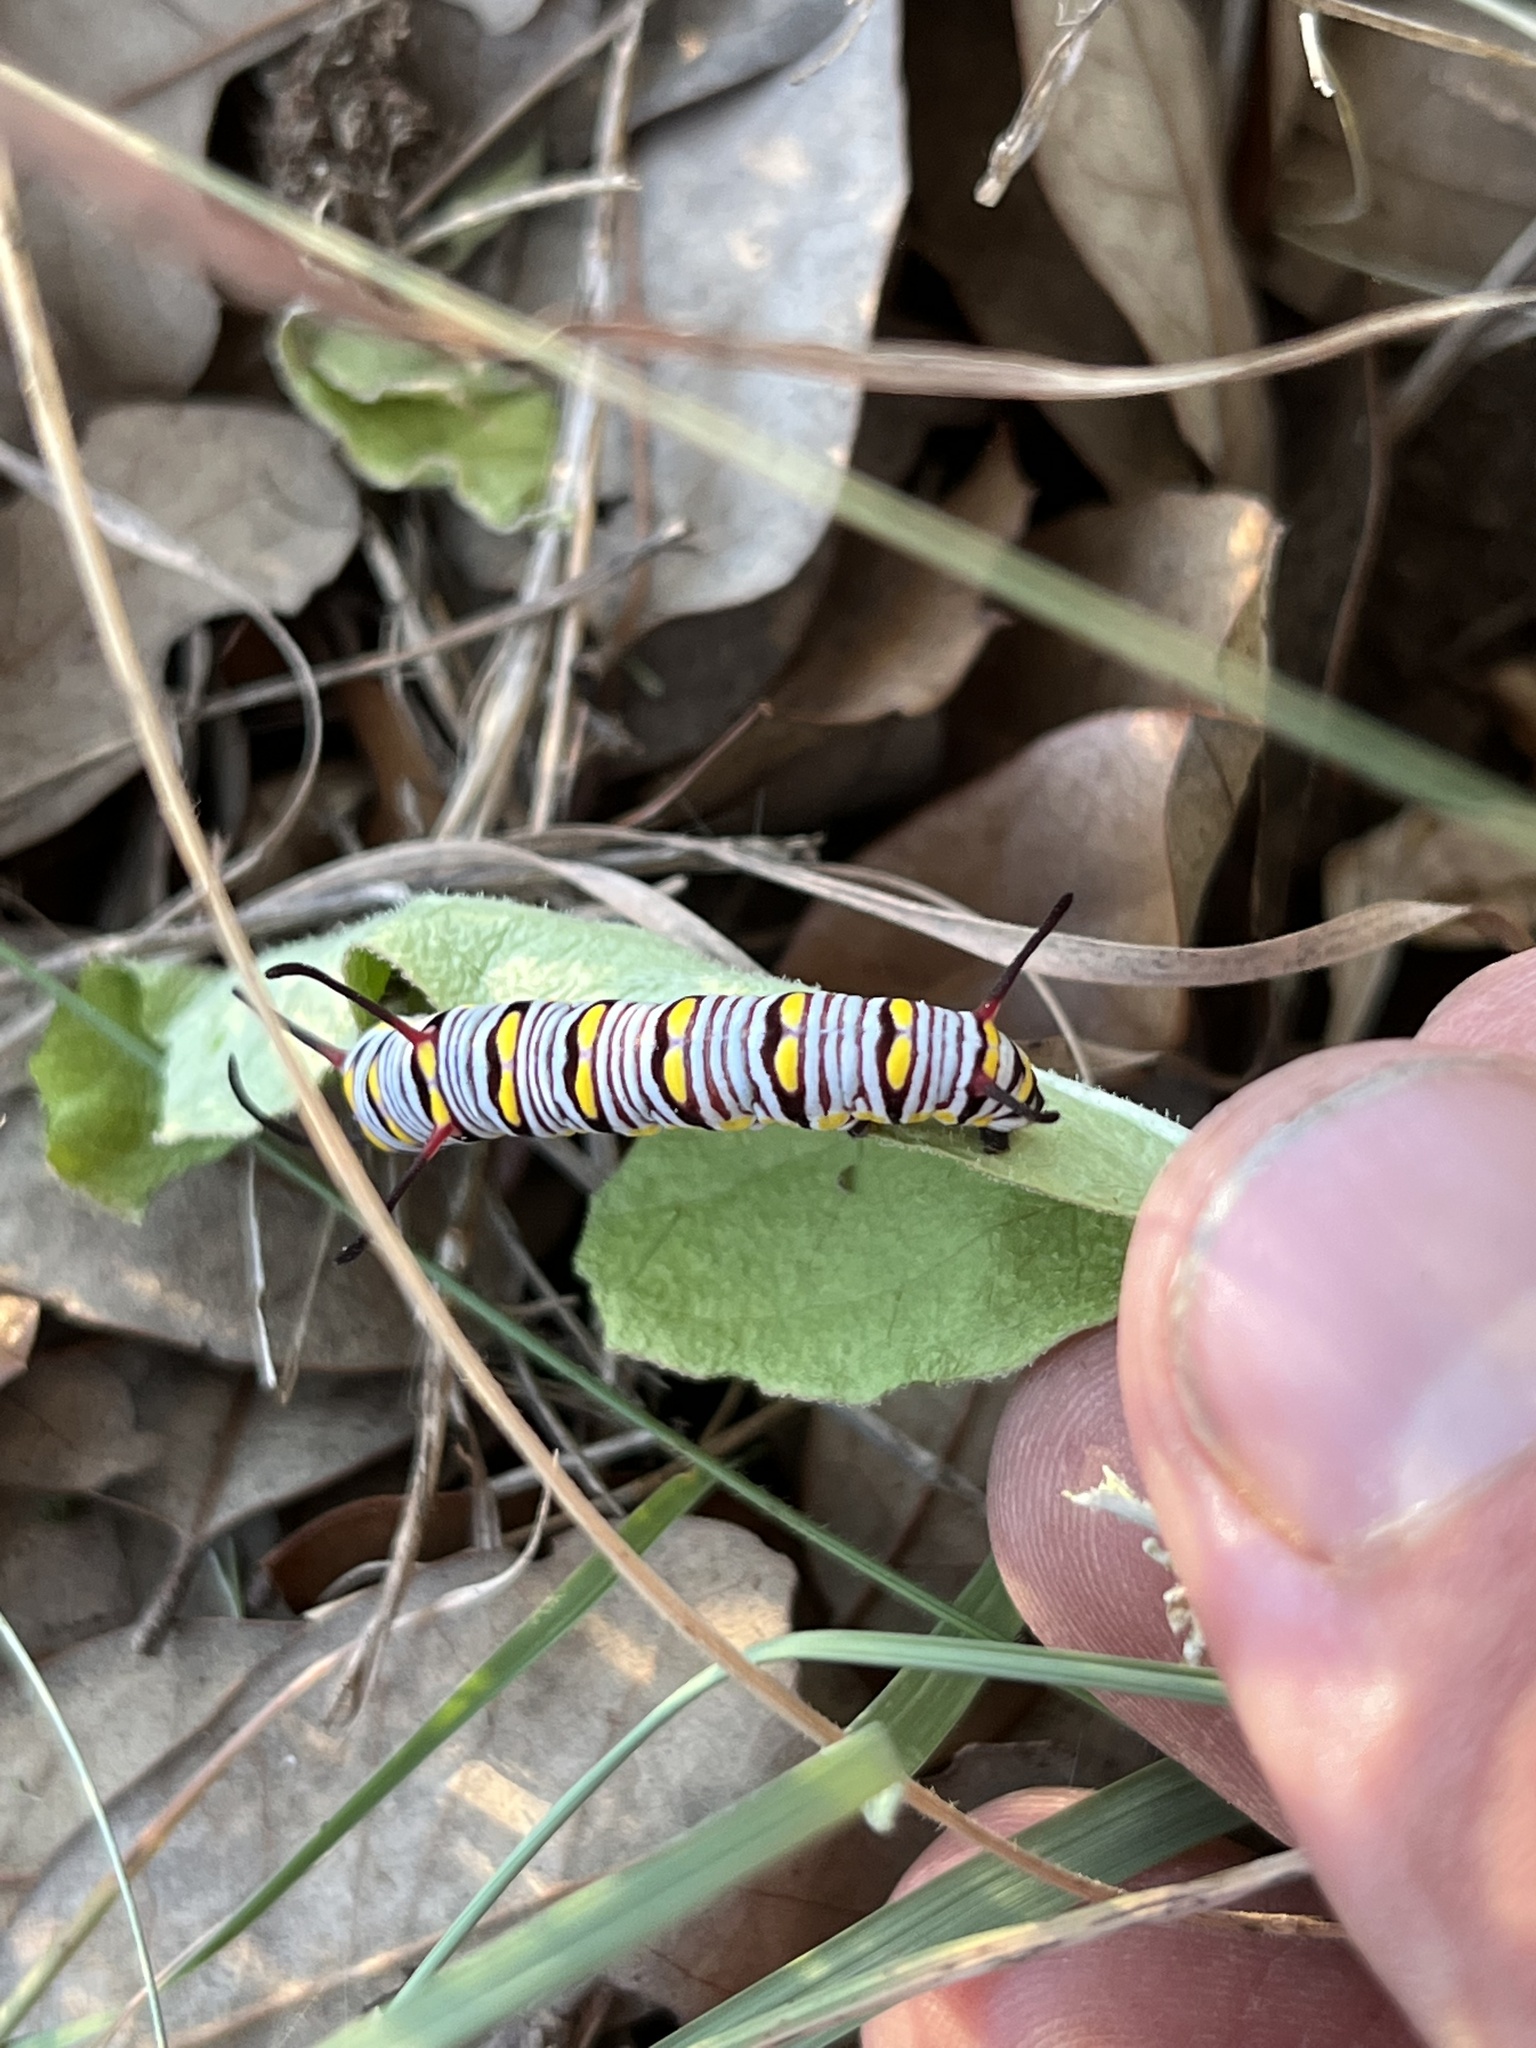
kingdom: Animalia
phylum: Arthropoda
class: Insecta
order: Lepidoptera
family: Nymphalidae
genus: Danaus
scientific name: Danaus gilippus
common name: Queen
